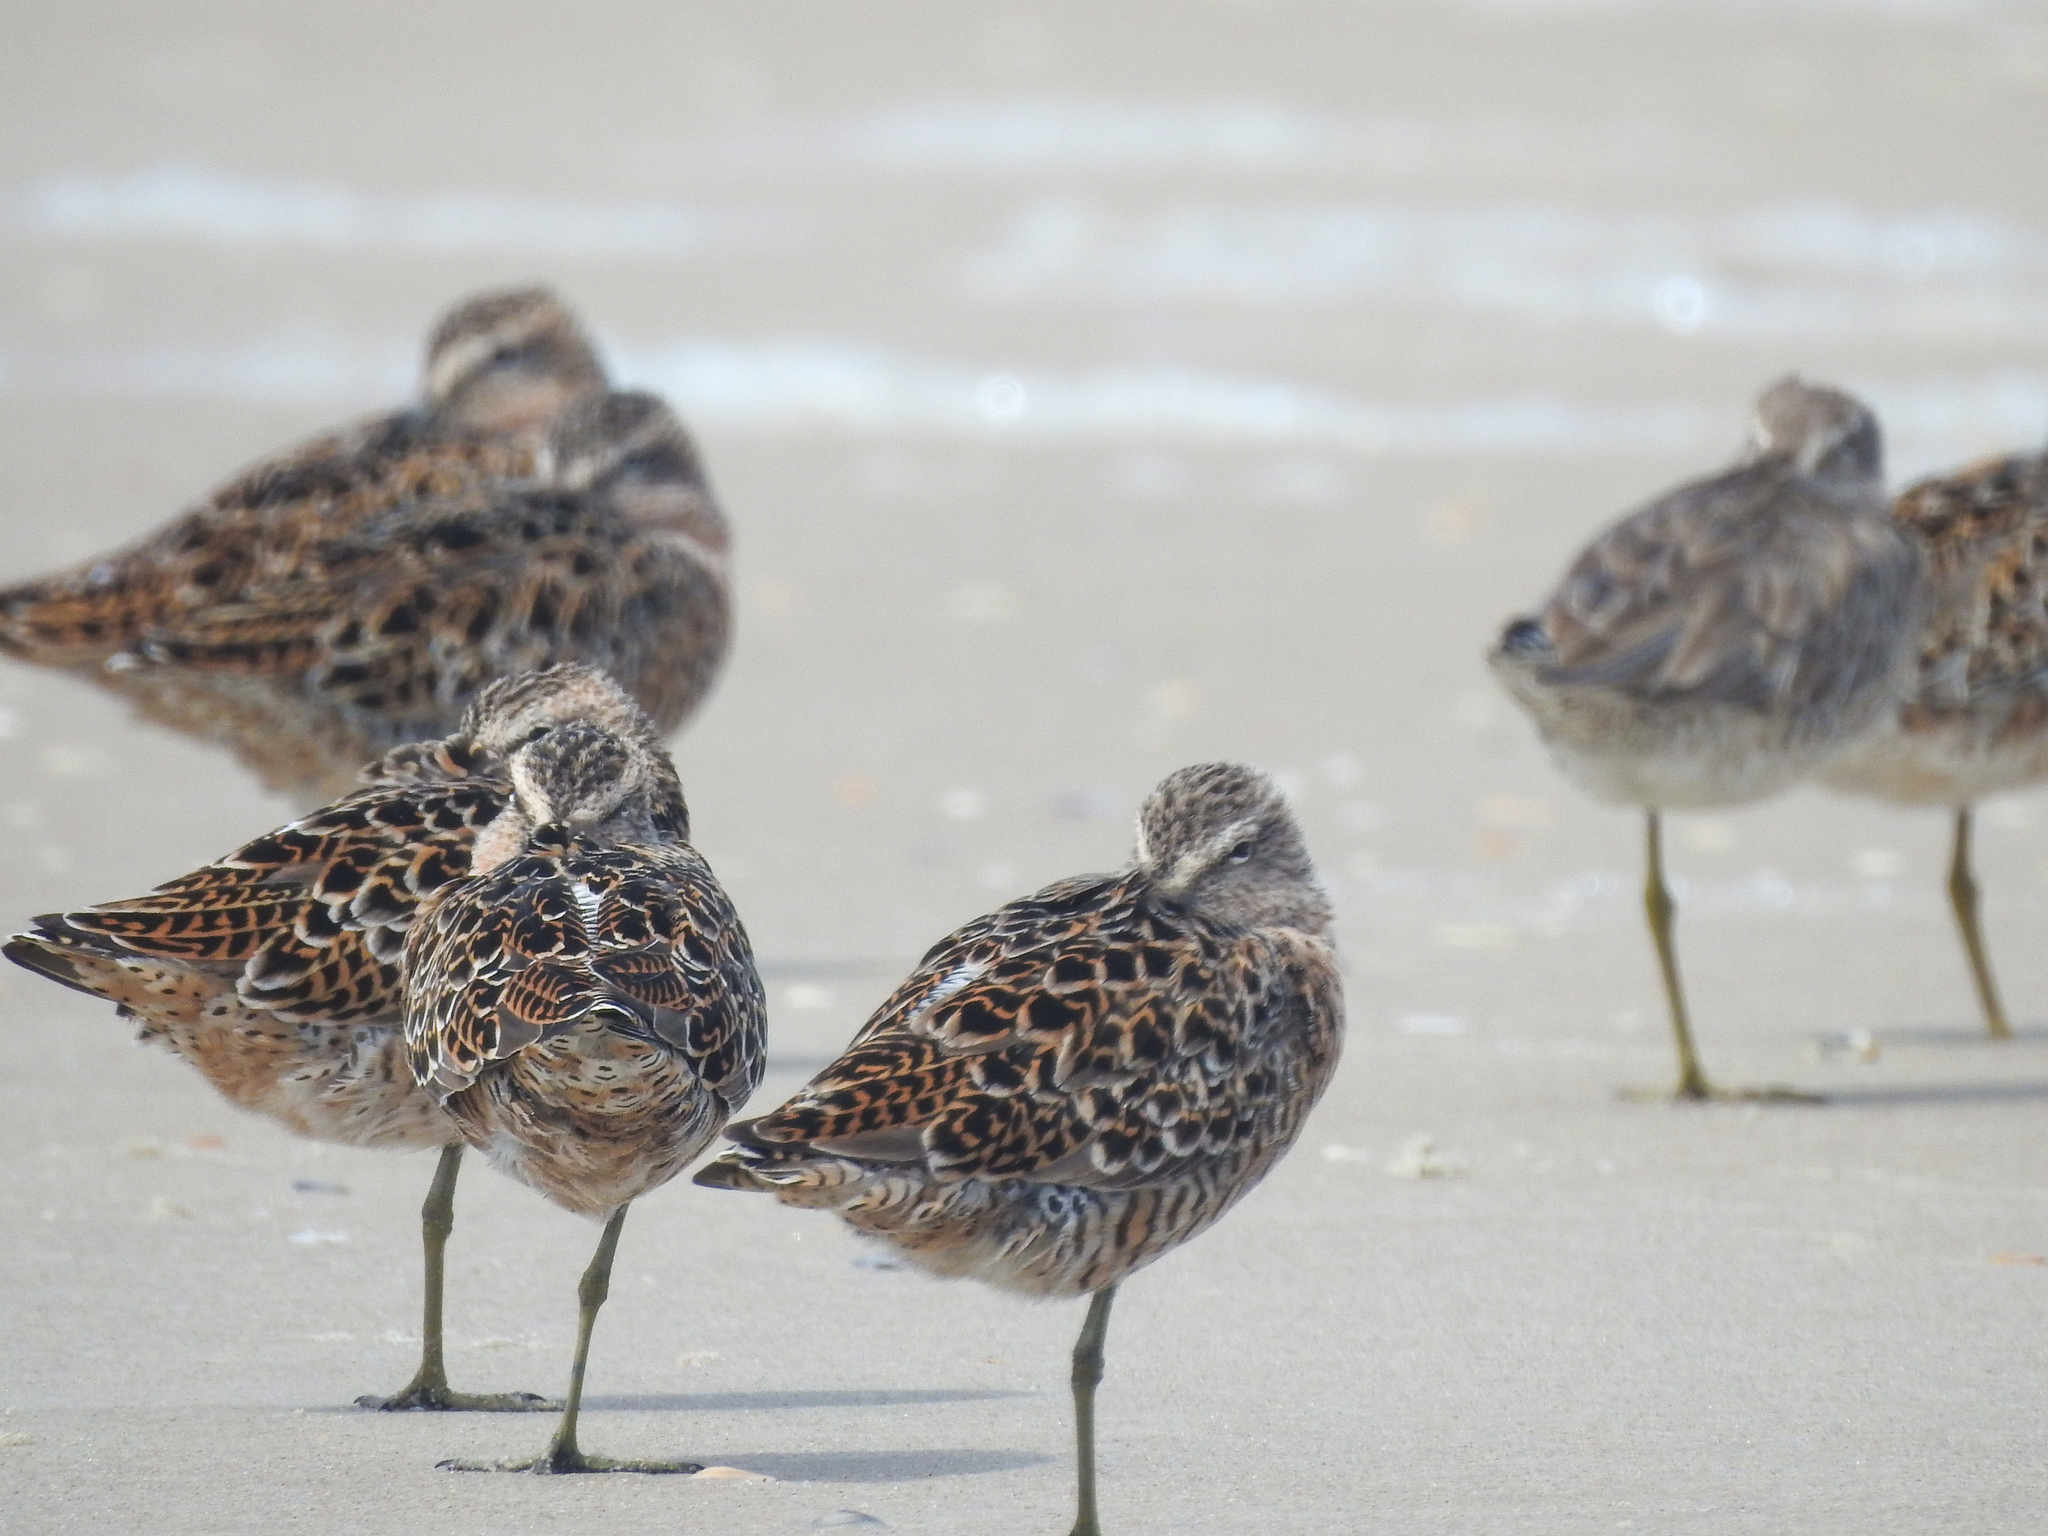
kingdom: Animalia
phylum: Chordata
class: Aves
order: Charadriiformes
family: Scolopacidae
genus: Limnodromus
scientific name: Limnodromus griseus
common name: Short-billed dowitcher
